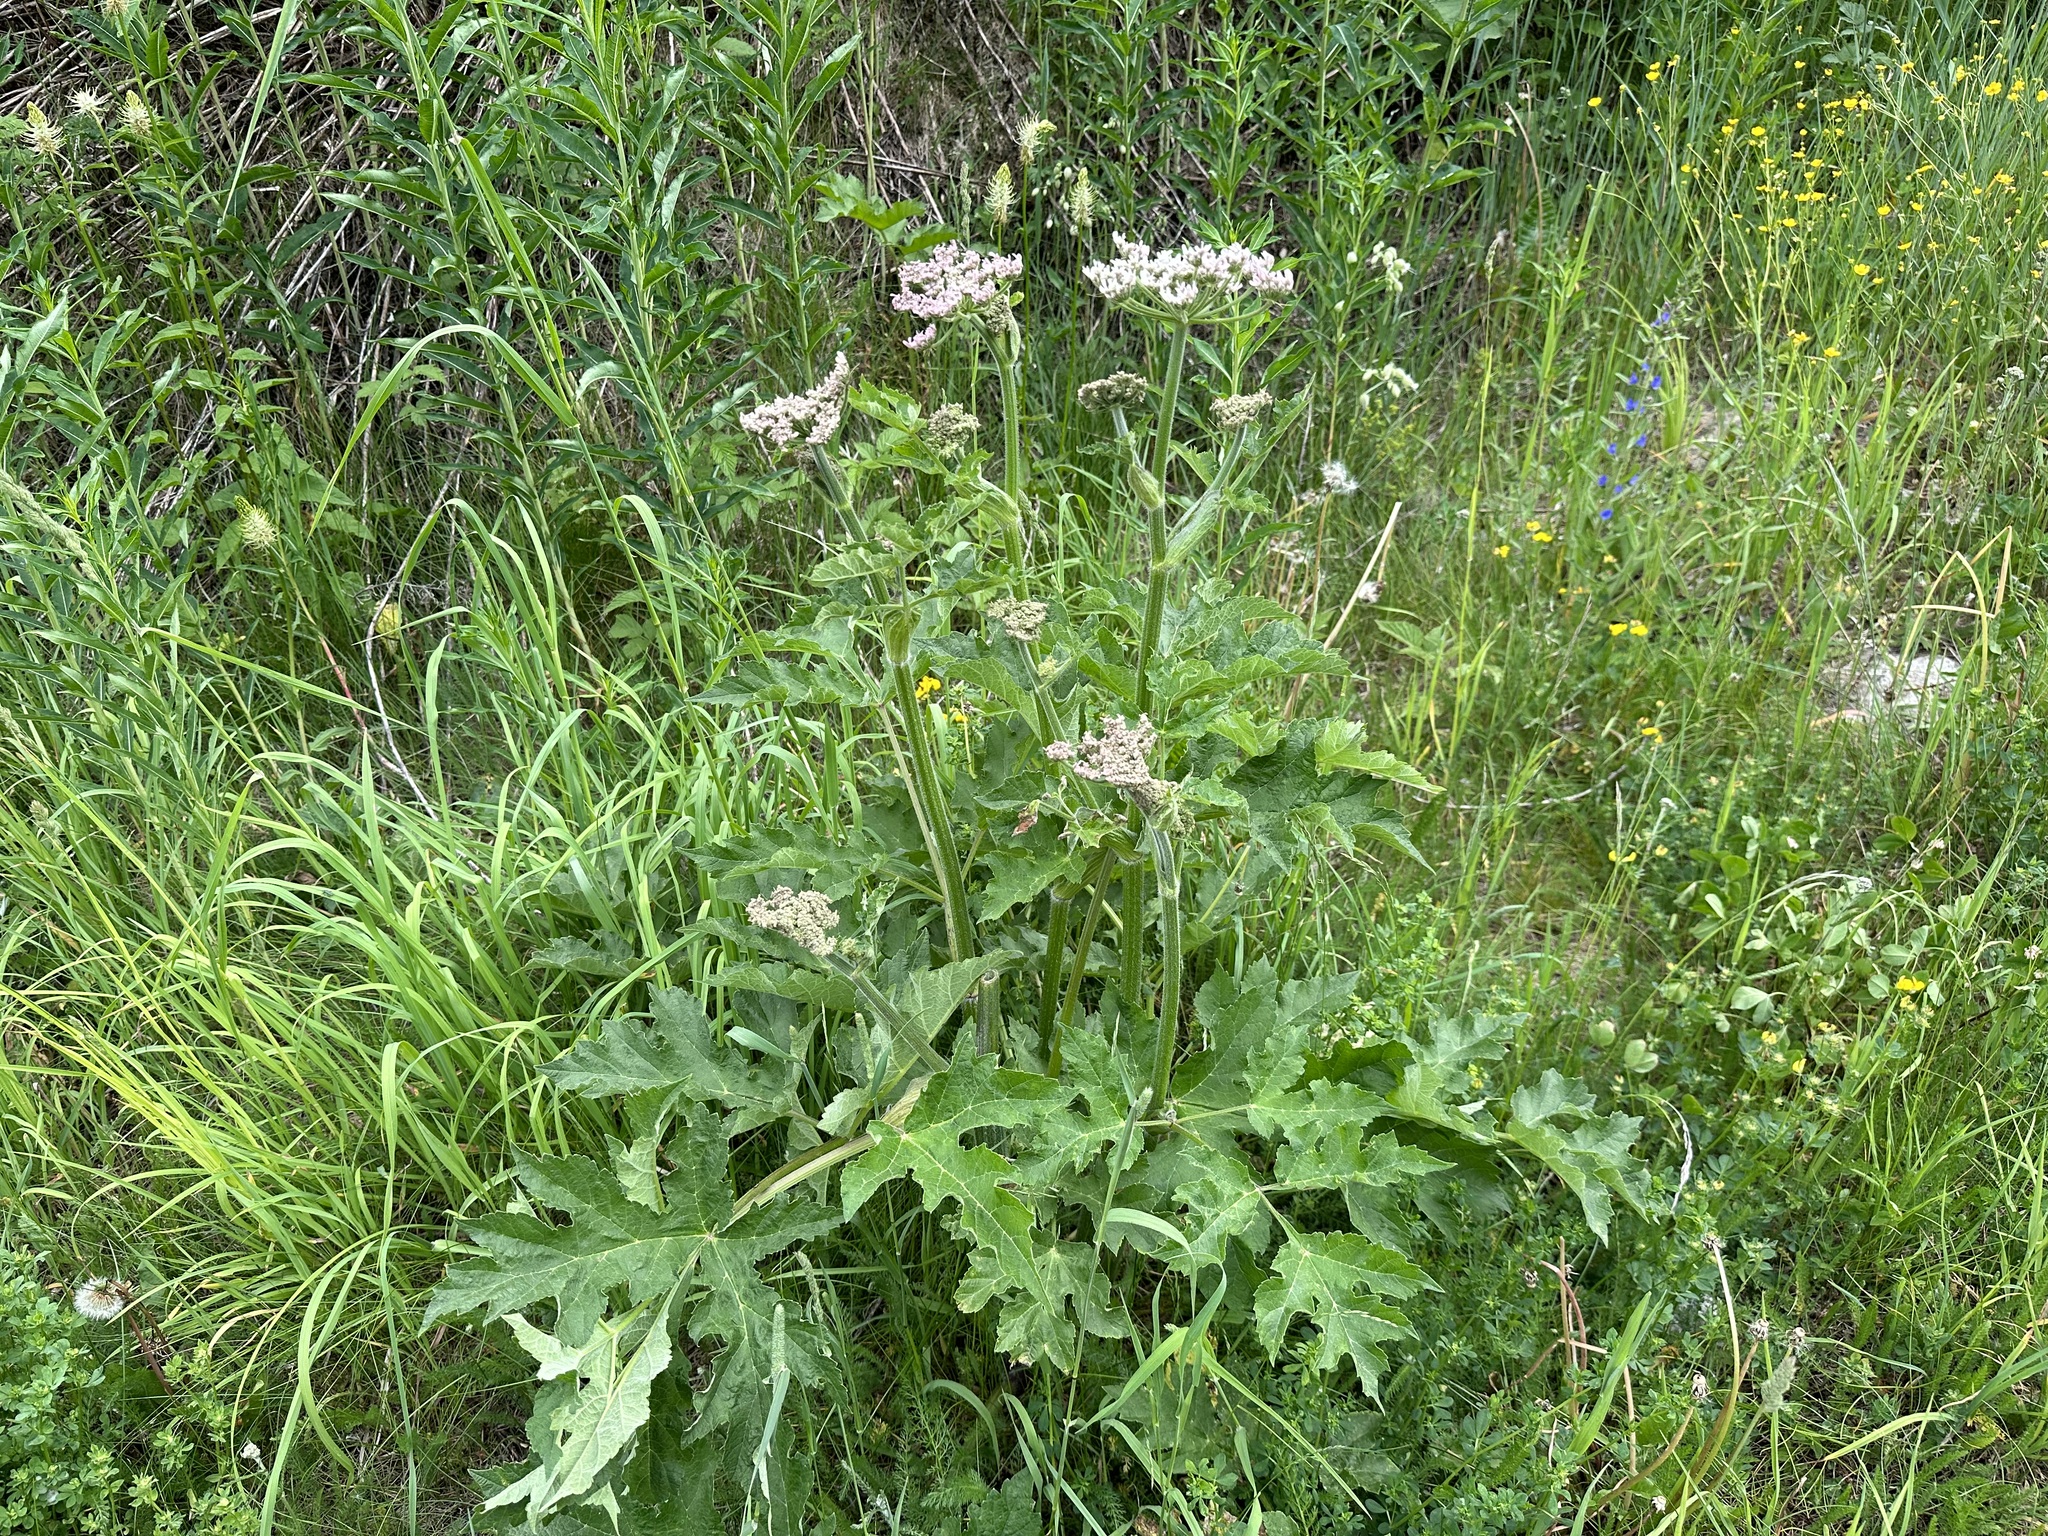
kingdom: Plantae
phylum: Tracheophyta
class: Magnoliopsida
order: Apiales
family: Apiaceae
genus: Heracleum
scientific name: Heracleum sphondylium
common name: Hogweed
